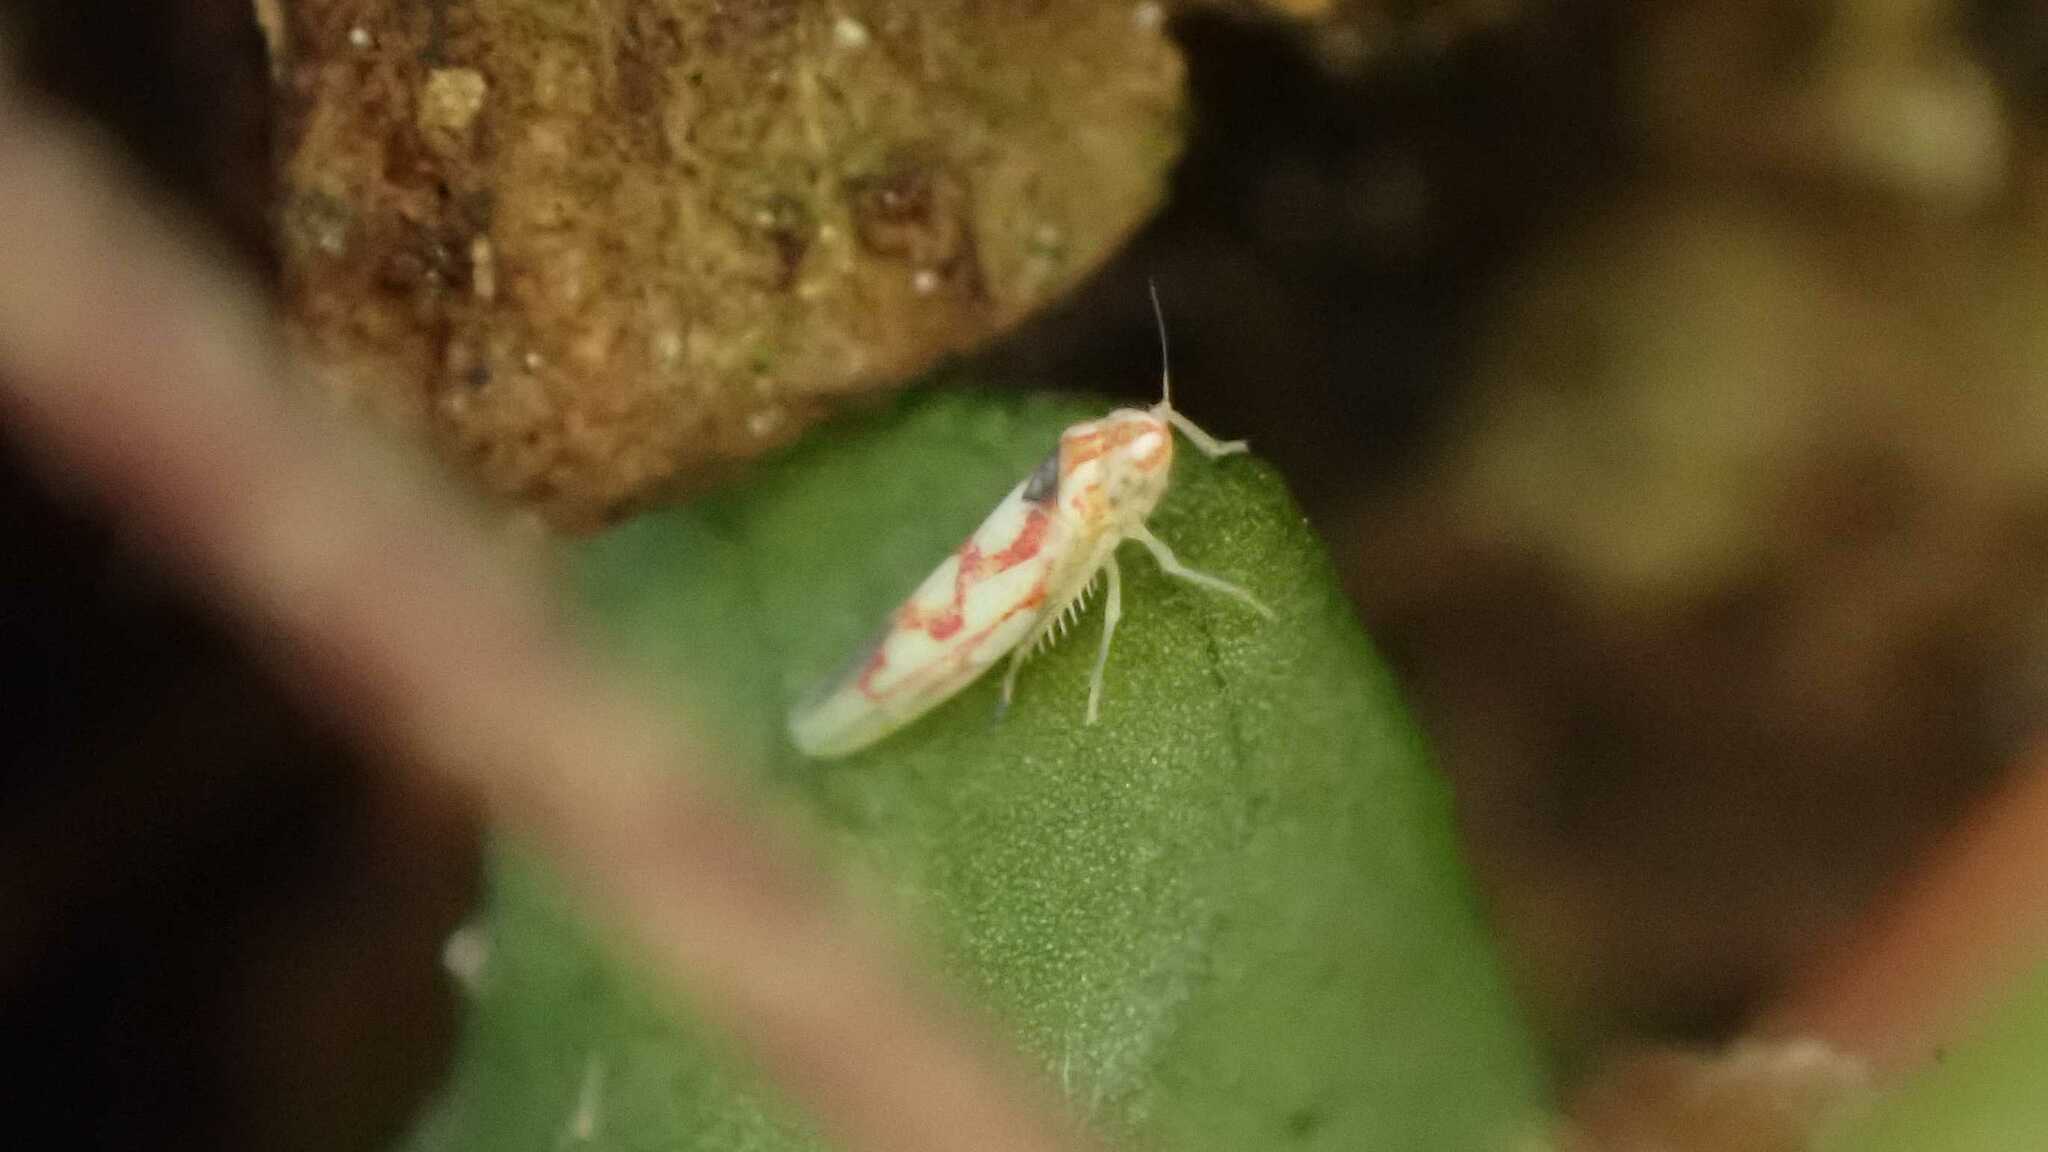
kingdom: Animalia
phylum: Arthropoda
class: Insecta
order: Hemiptera
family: Cicadellidae
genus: Zygina
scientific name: Zygina flammigera
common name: Leafhopper
